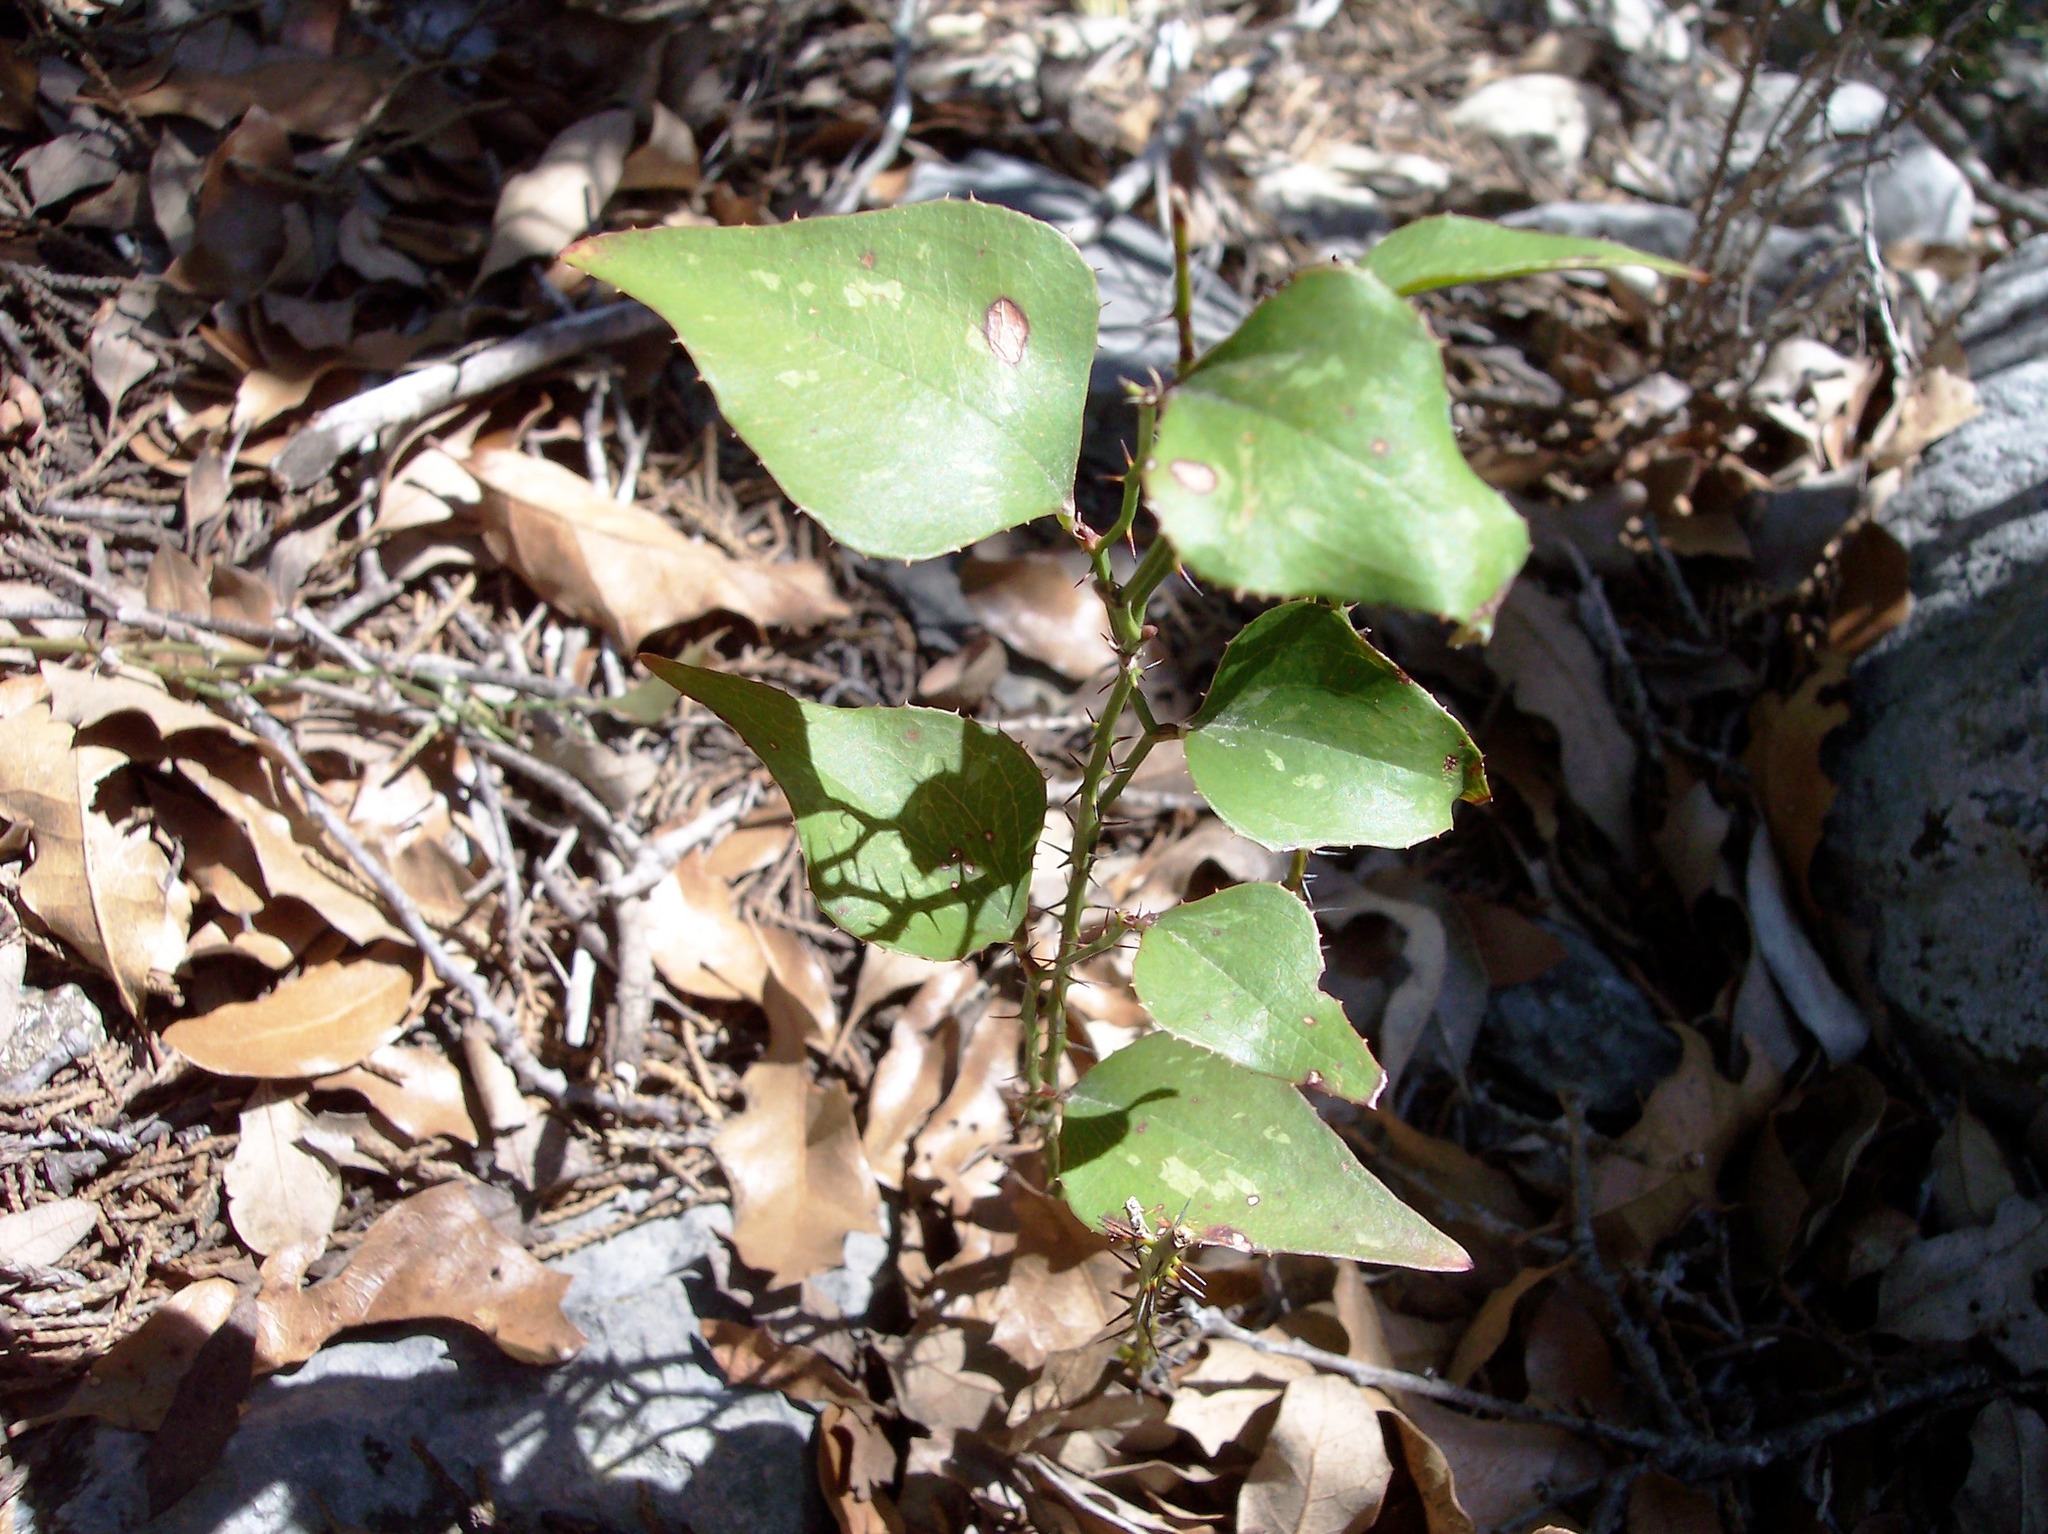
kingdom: Plantae
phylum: Tracheophyta
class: Liliopsida
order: Liliales
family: Smilacaceae
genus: Smilax
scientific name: Smilax bona-nox
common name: Catbrier
